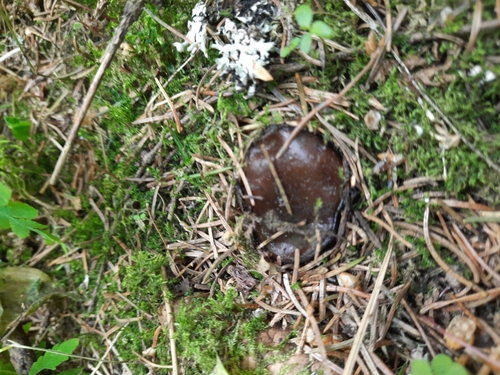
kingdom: Fungi
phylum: Ascomycota
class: Pezizomycetes
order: Pezizales
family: Sarcosomataceae
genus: Sarcosoma
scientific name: Sarcosoma globosum
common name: Charred-pancake cup
